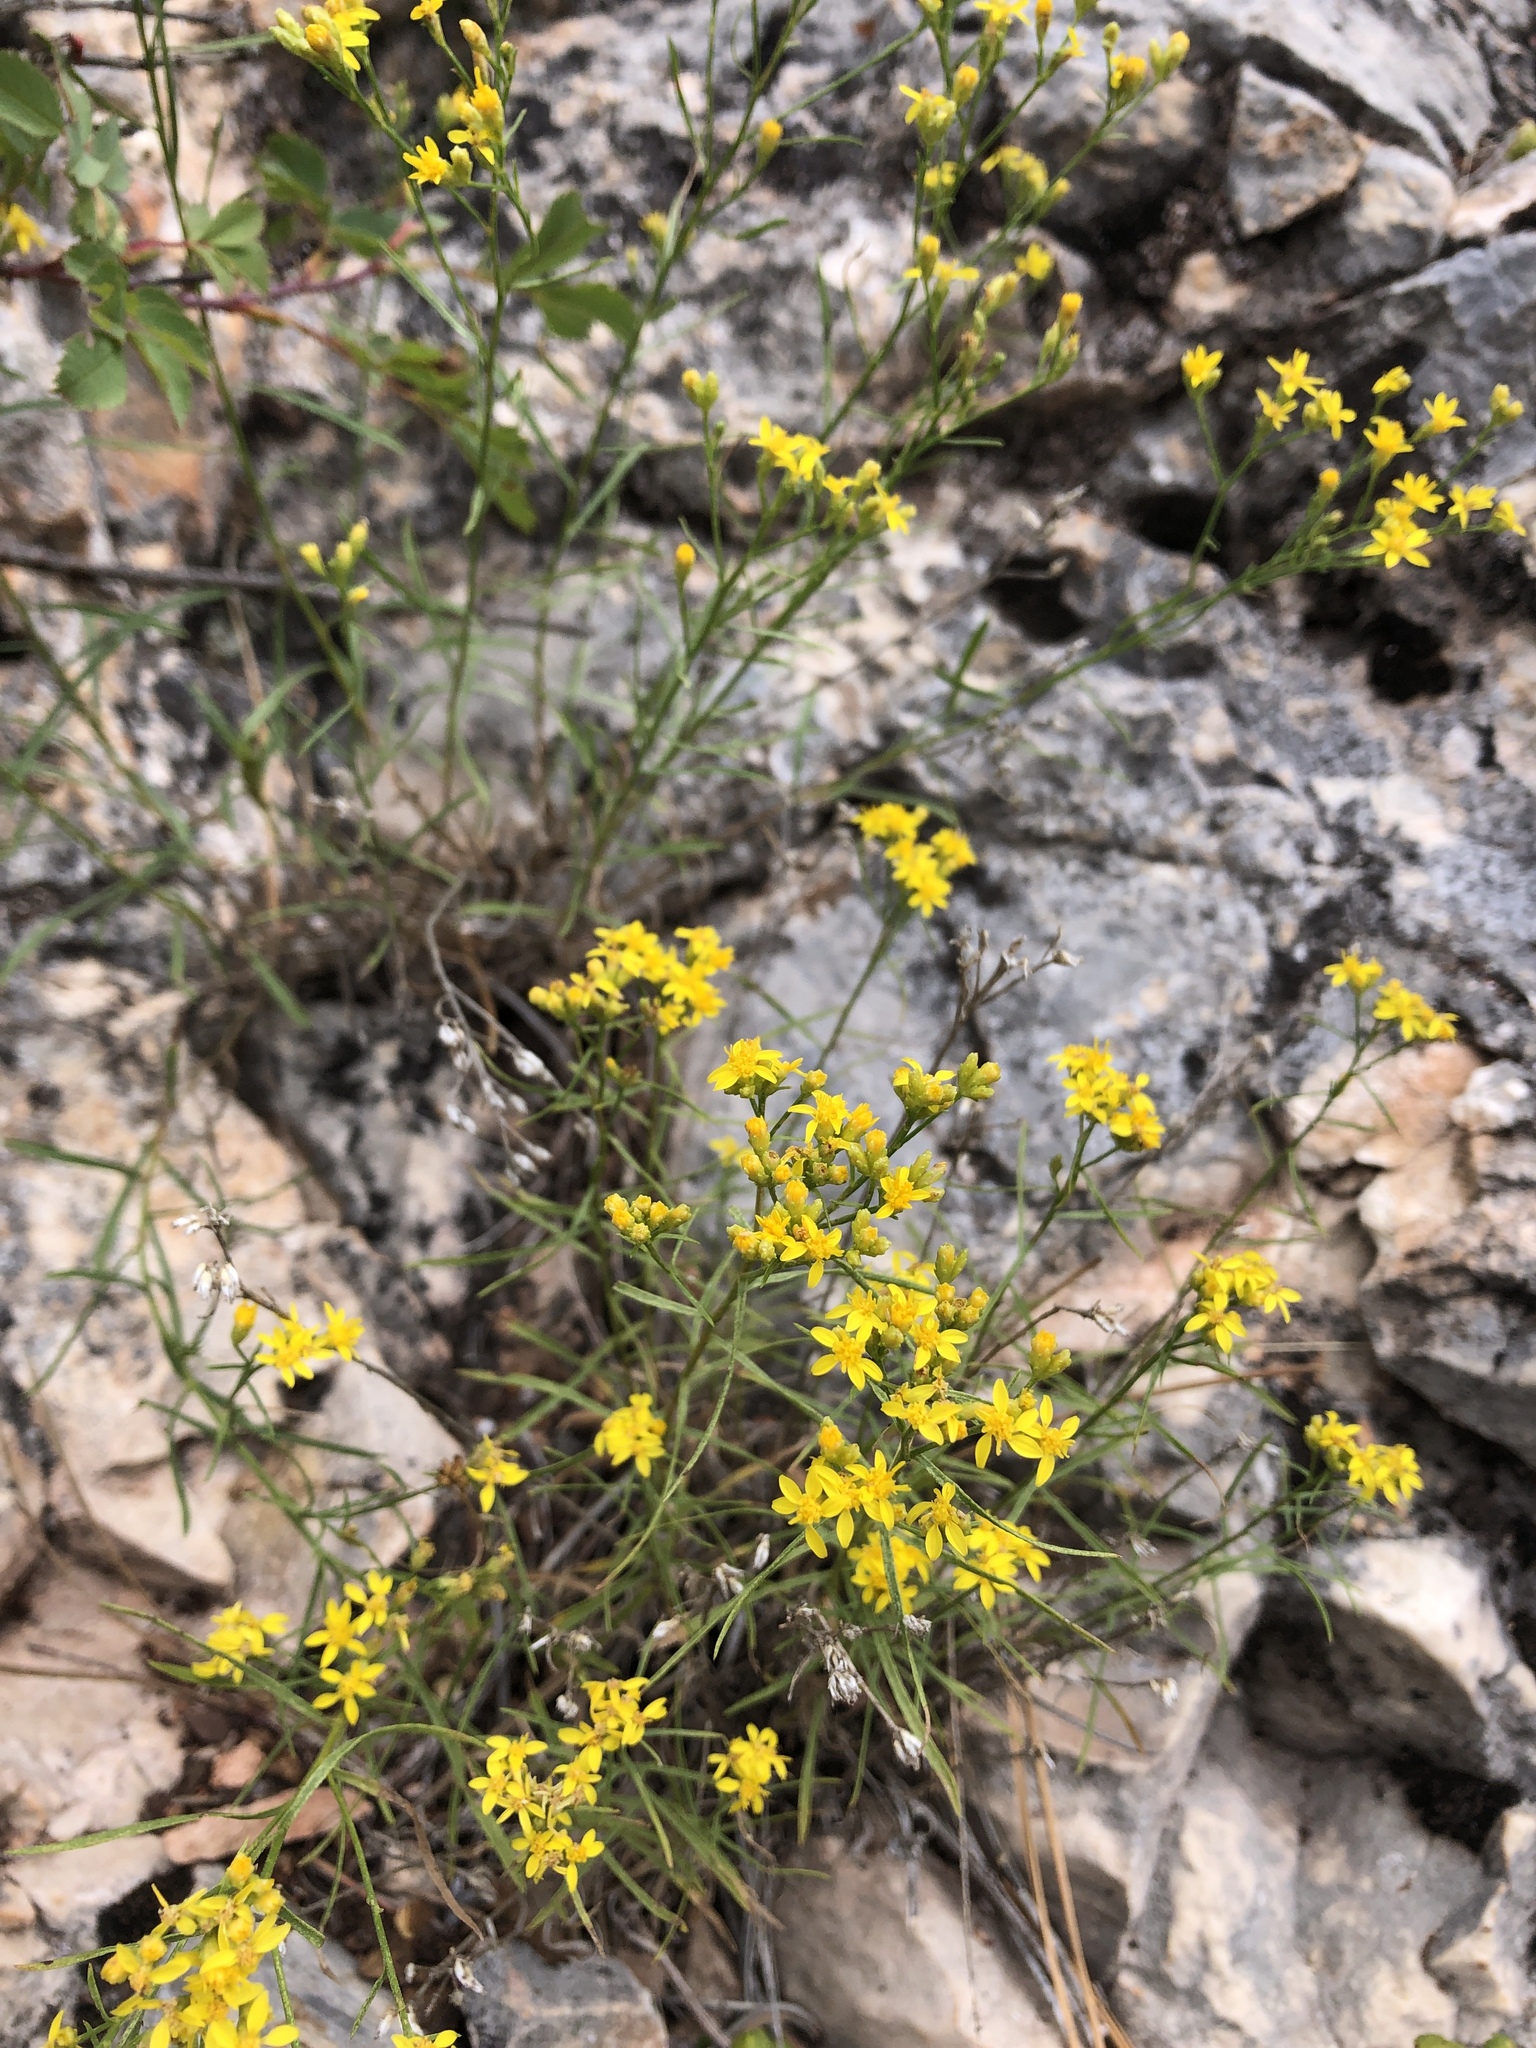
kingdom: Plantae
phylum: Tracheophyta
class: Magnoliopsida
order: Asterales
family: Asteraceae
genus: Gutierrezia
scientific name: Gutierrezia sarothrae
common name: Broom snakeweed
